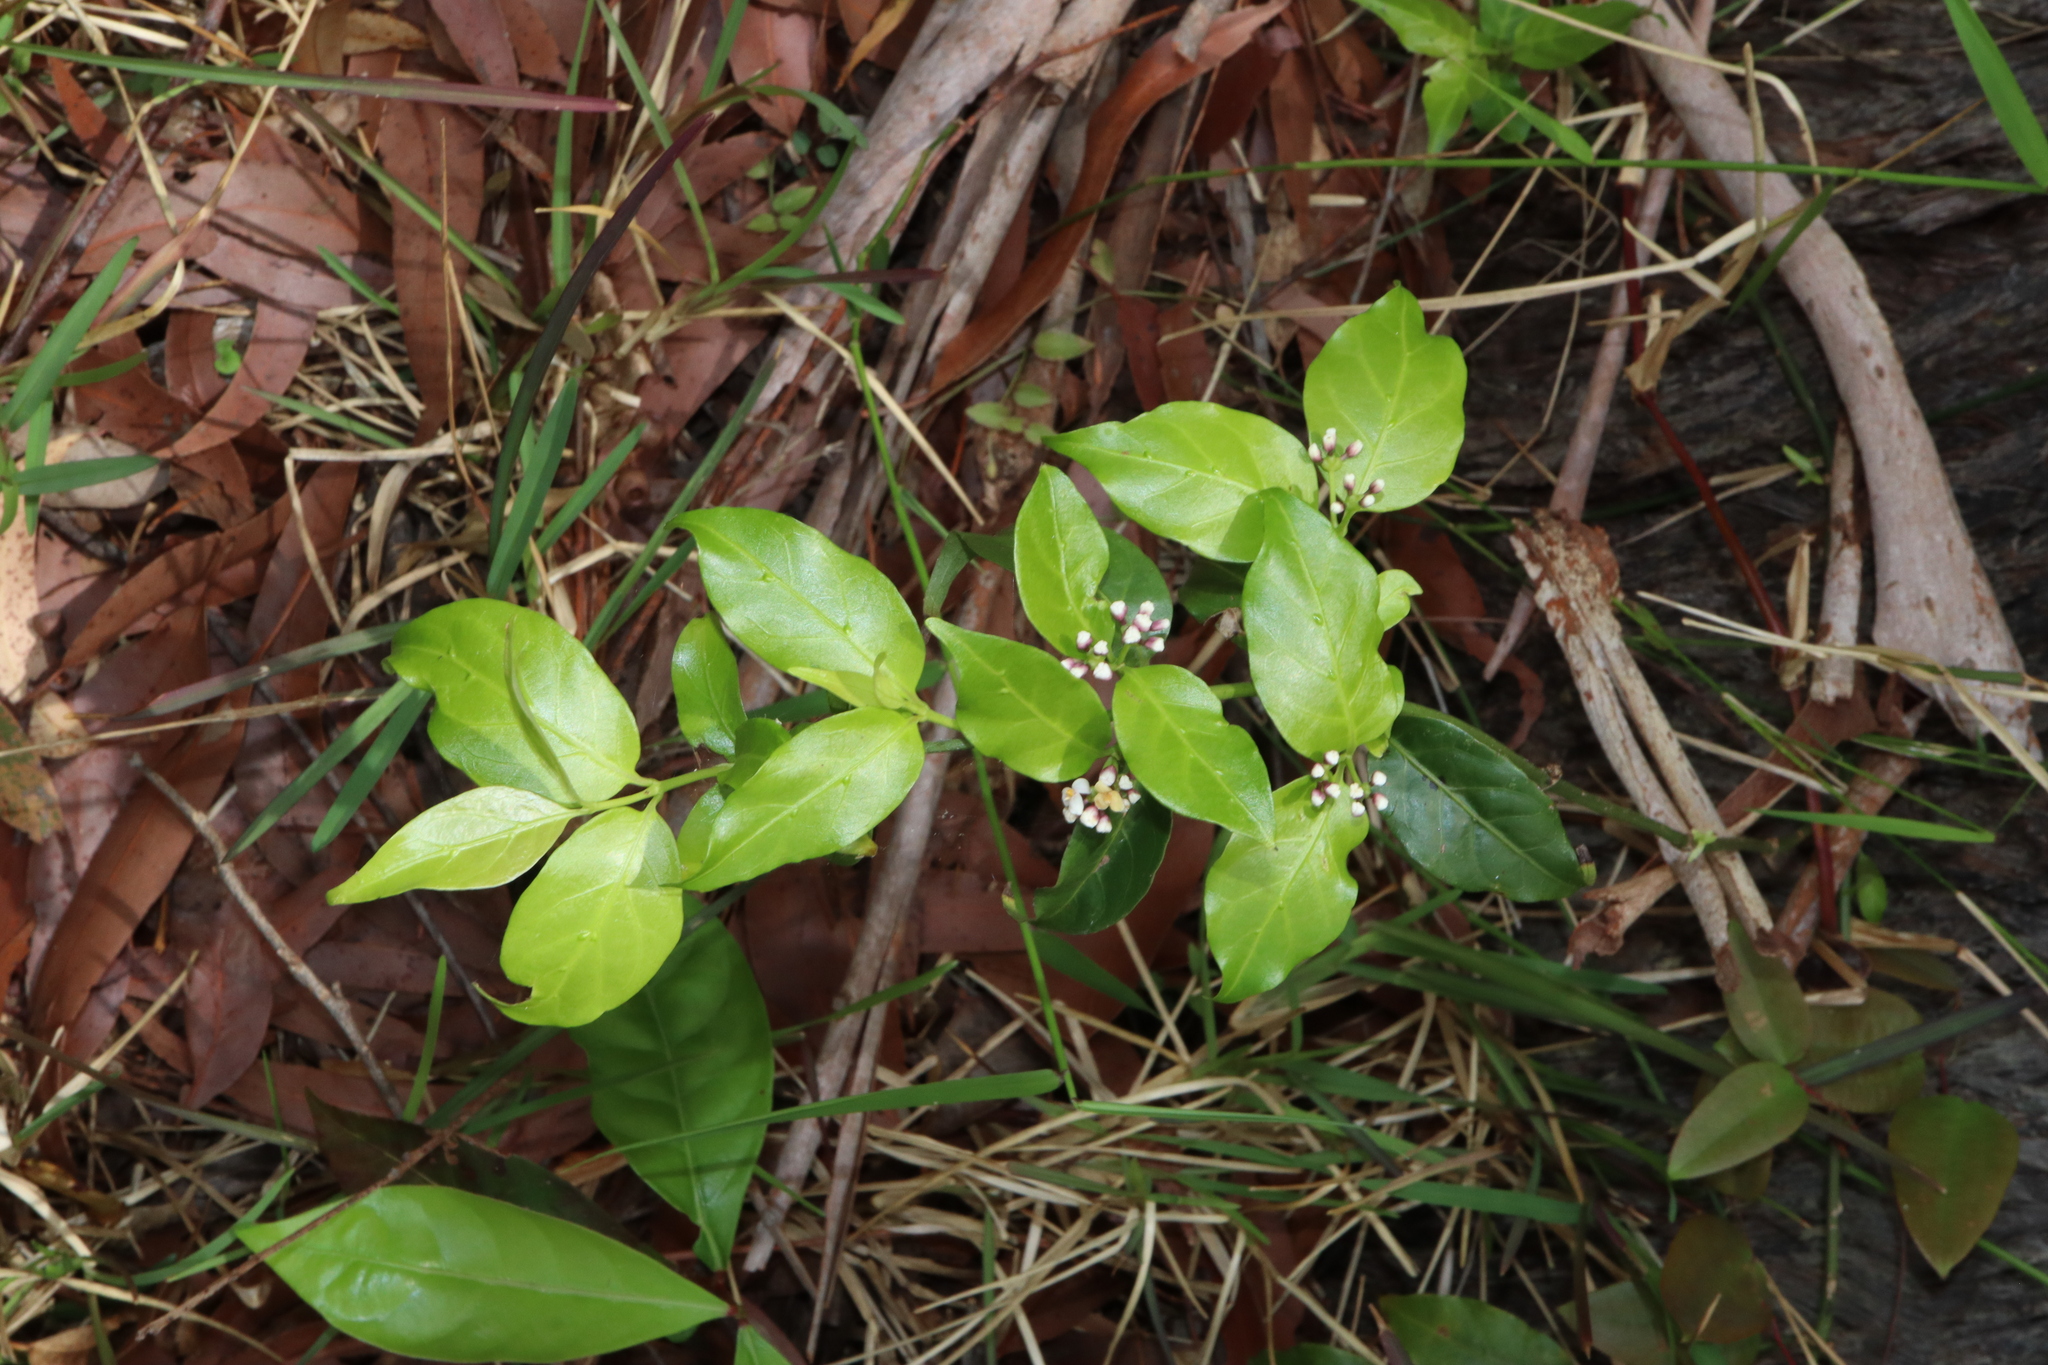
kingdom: Plantae
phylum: Tracheophyta
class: Magnoliopsida
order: Gentianales
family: Rubiaceae
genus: Gynochthodes
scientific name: Gynochthodes jasminoides
